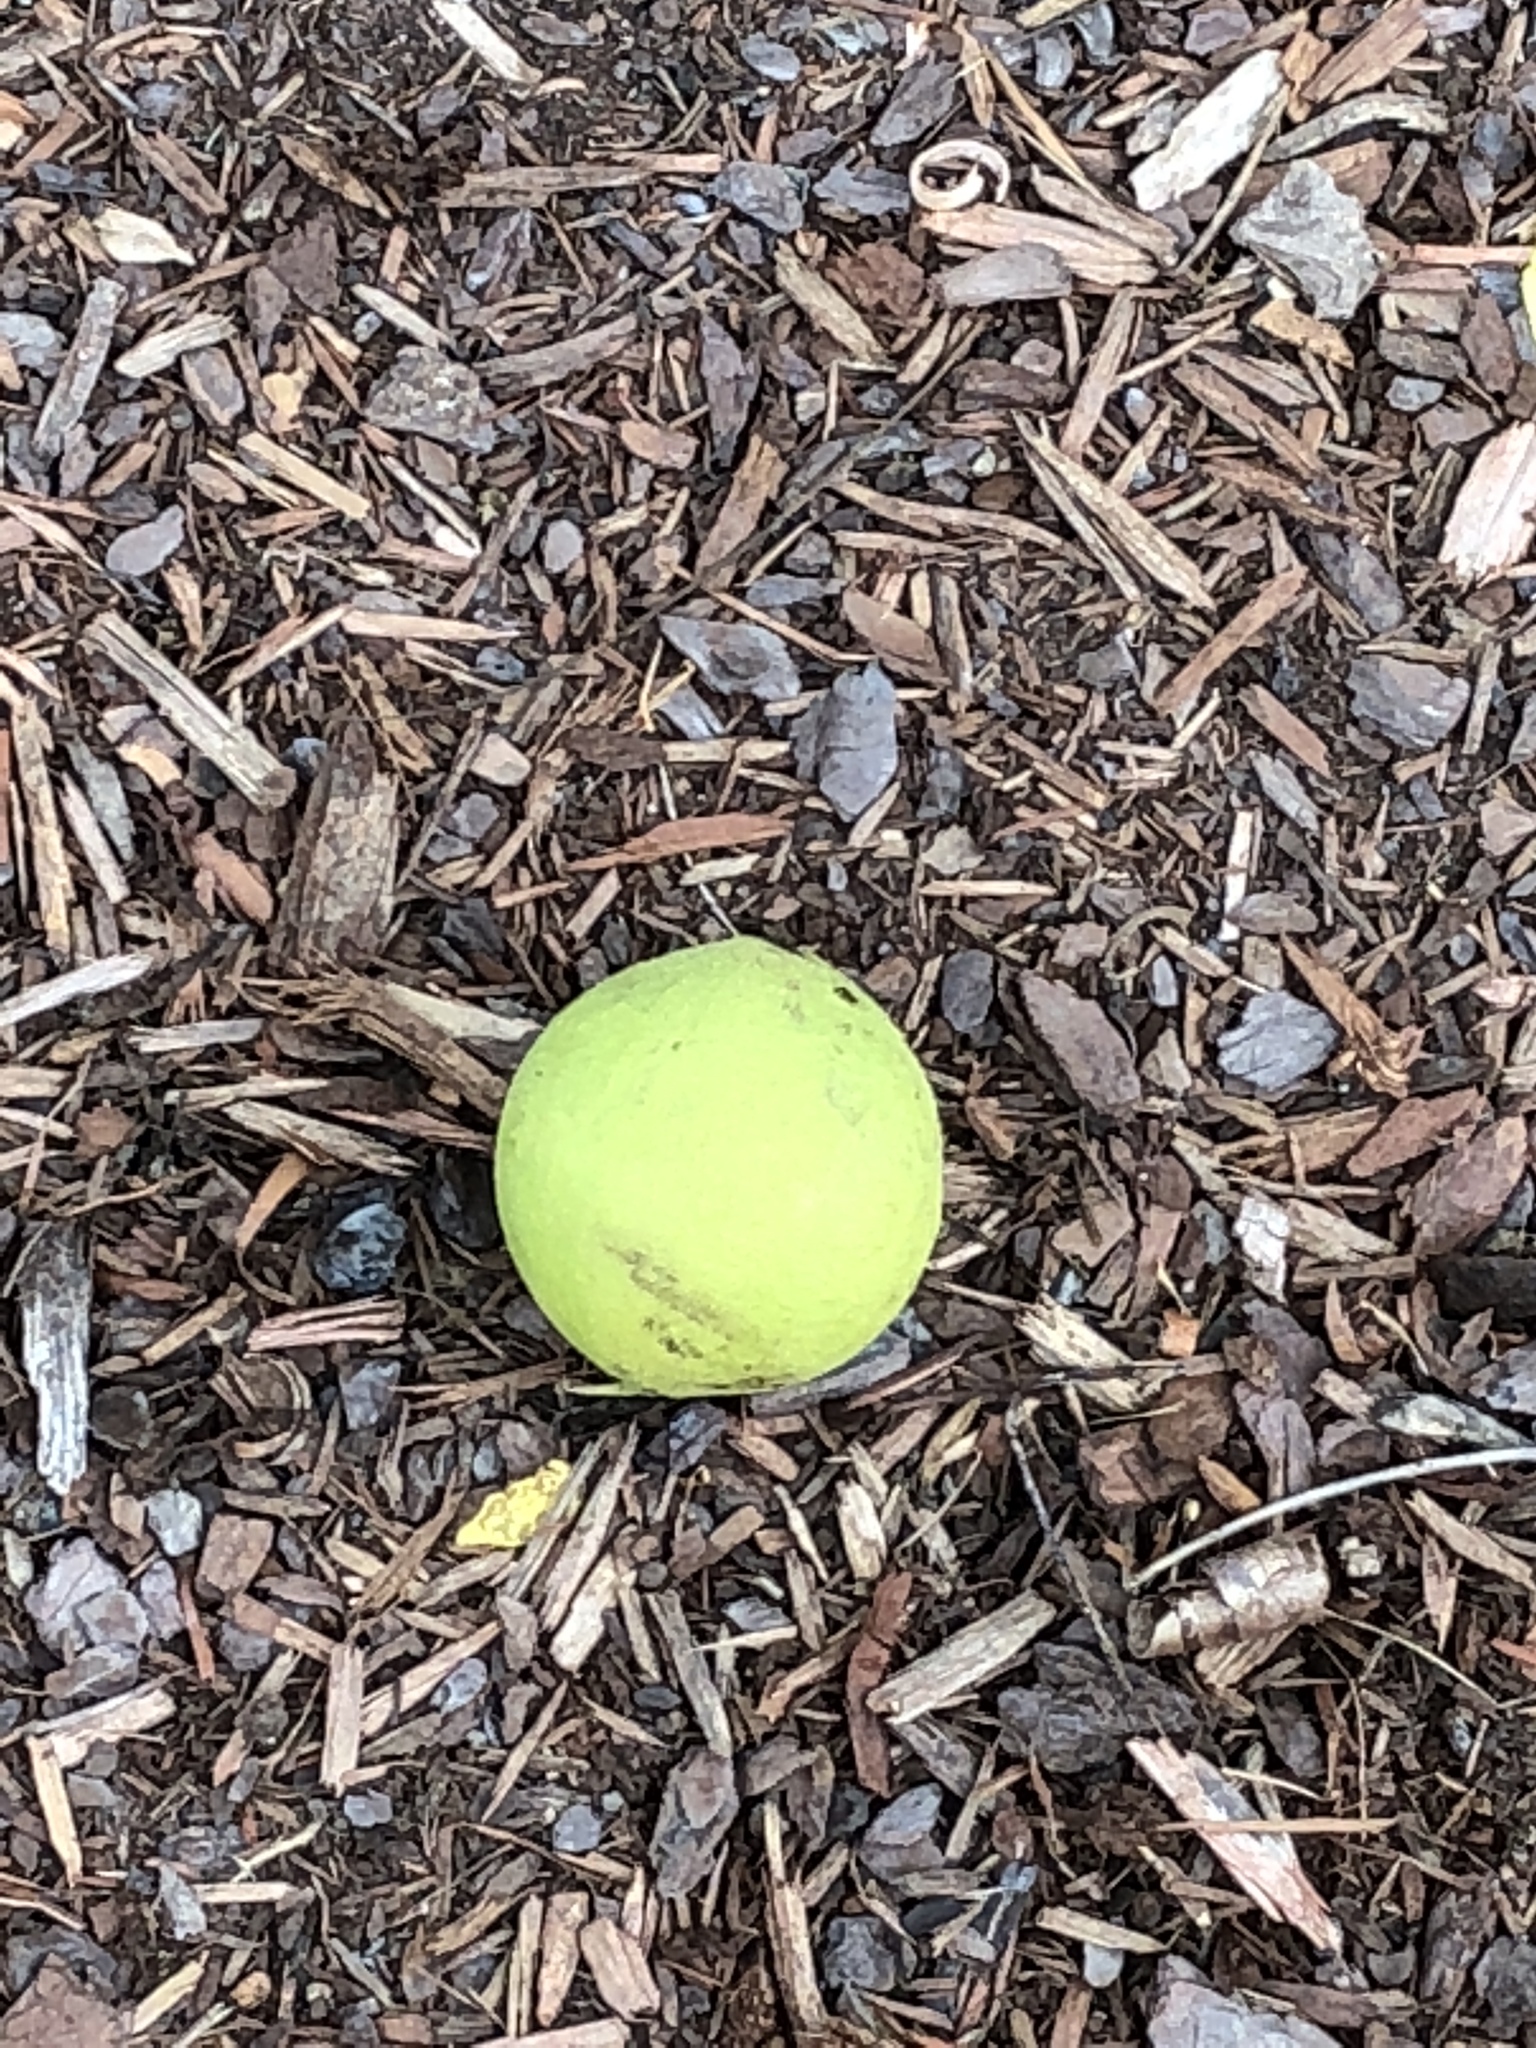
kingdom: Plantae
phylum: Tracheophyta
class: Magnoliopsida
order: Fagales
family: Juglandaceae
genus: Juglans
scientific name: Juglans nigra
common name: Black walnut
